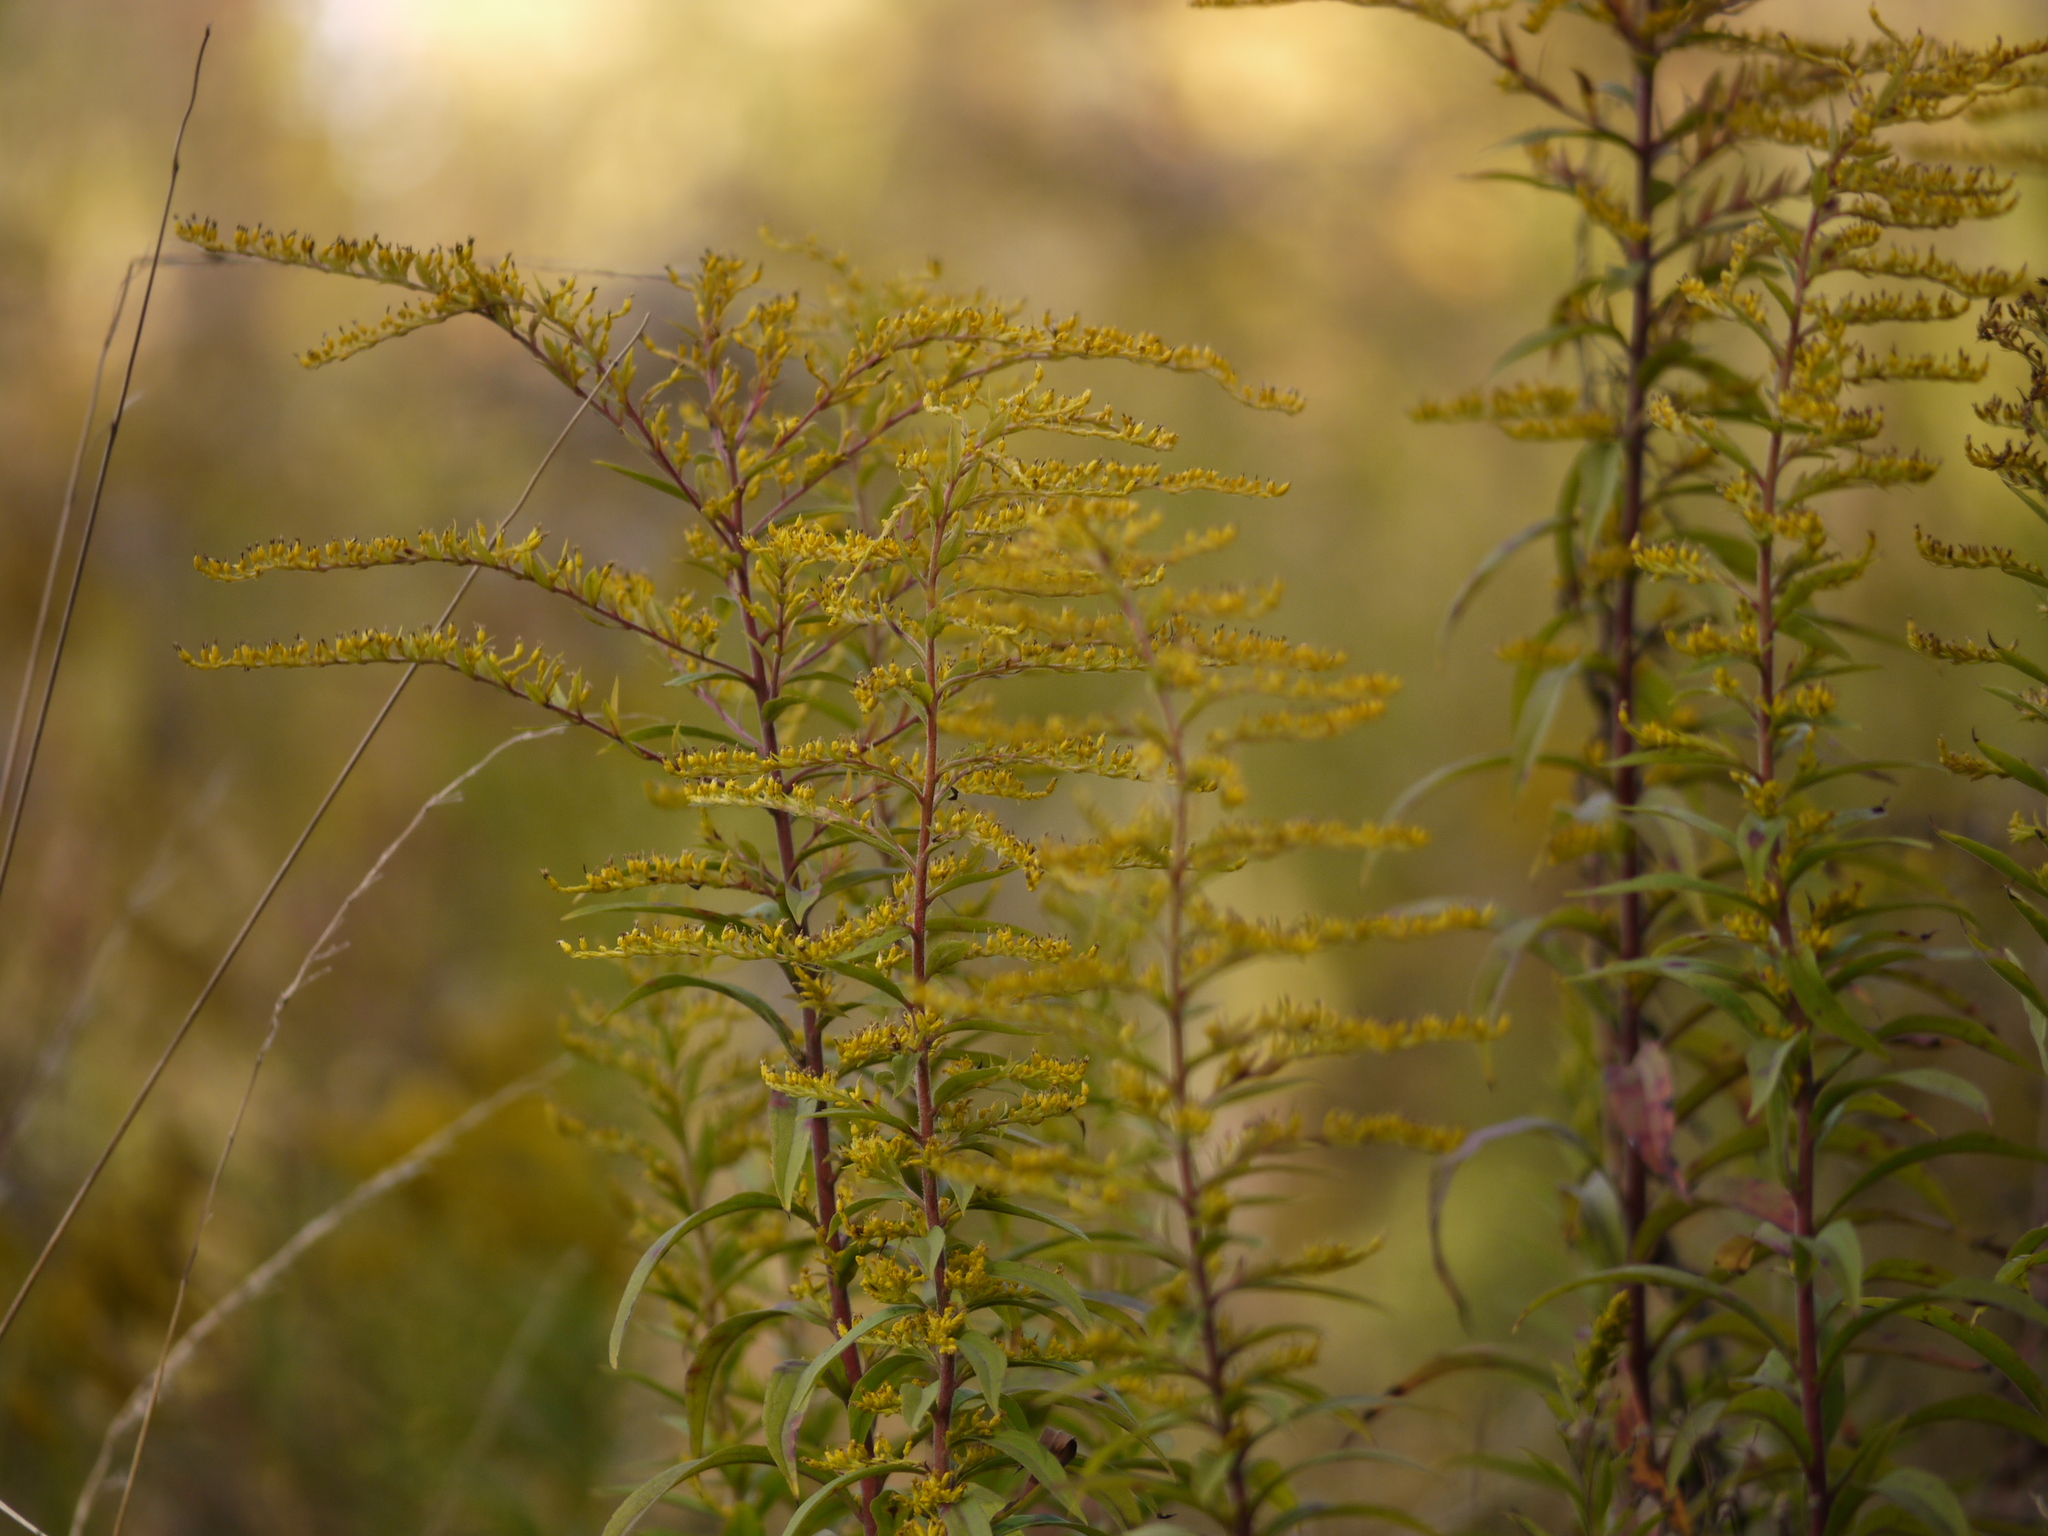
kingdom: Plantae
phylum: Tracheophyta
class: Magnoliopsida
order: Asterales
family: Asteraceae
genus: Solidago
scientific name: Solidago canadensis
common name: Canada goldenrod
